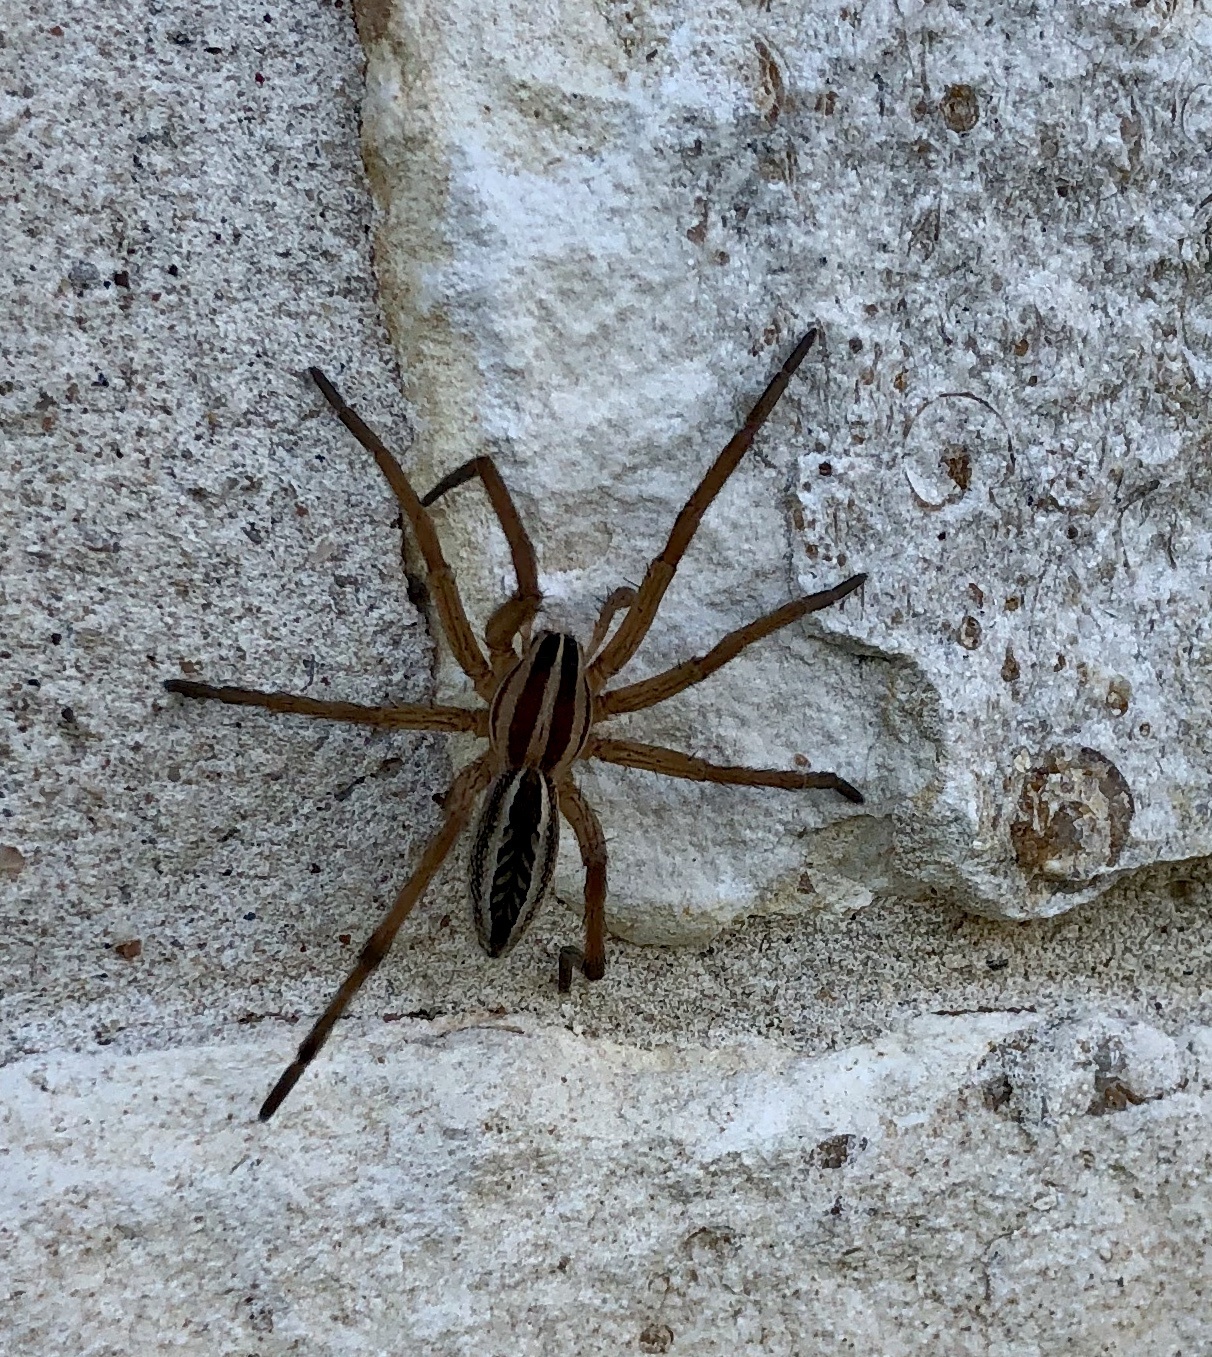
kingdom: Animalia
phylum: Arthropoda
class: Arachnida
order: Araneae
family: Lycosidae
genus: Rabidosa
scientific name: Rabidosa rabida
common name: Rabid wolf spider
